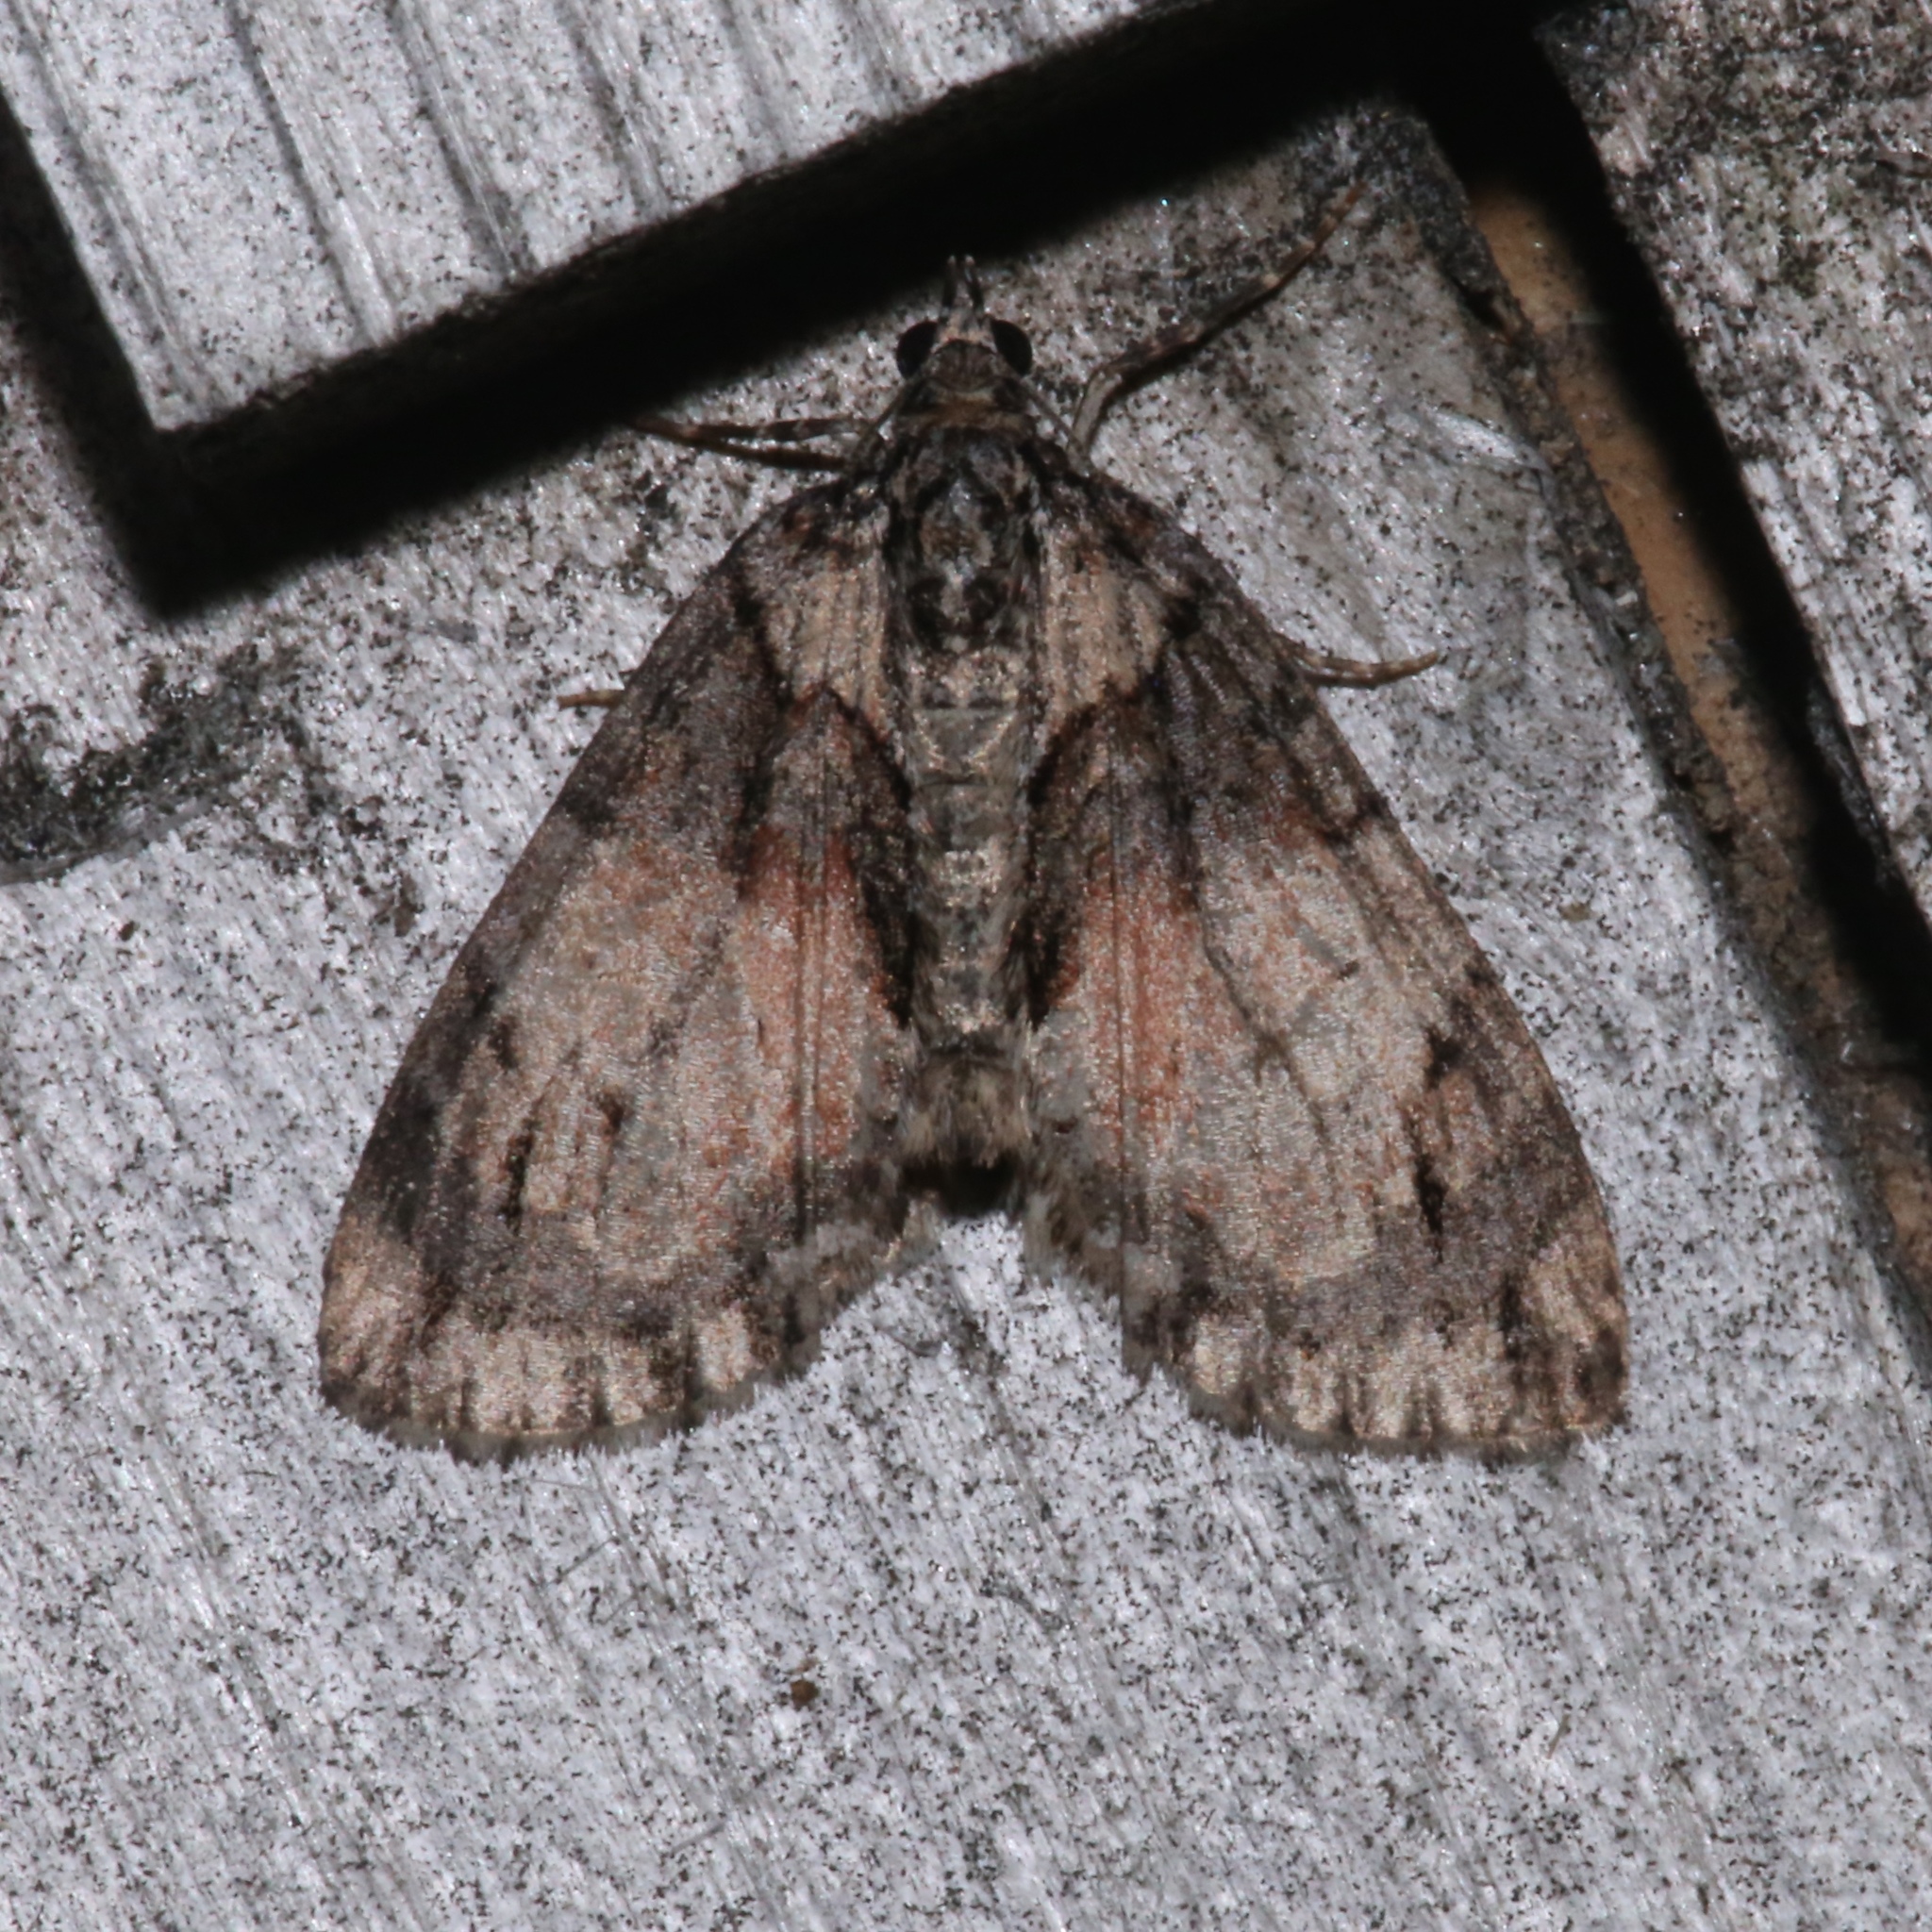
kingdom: Animalia
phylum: Arthropoda
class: Insecta
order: Lepidoptera
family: Geometridae
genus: Hydriomena
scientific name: Hydriomena perfracta
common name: Shattered hydriomena moth
